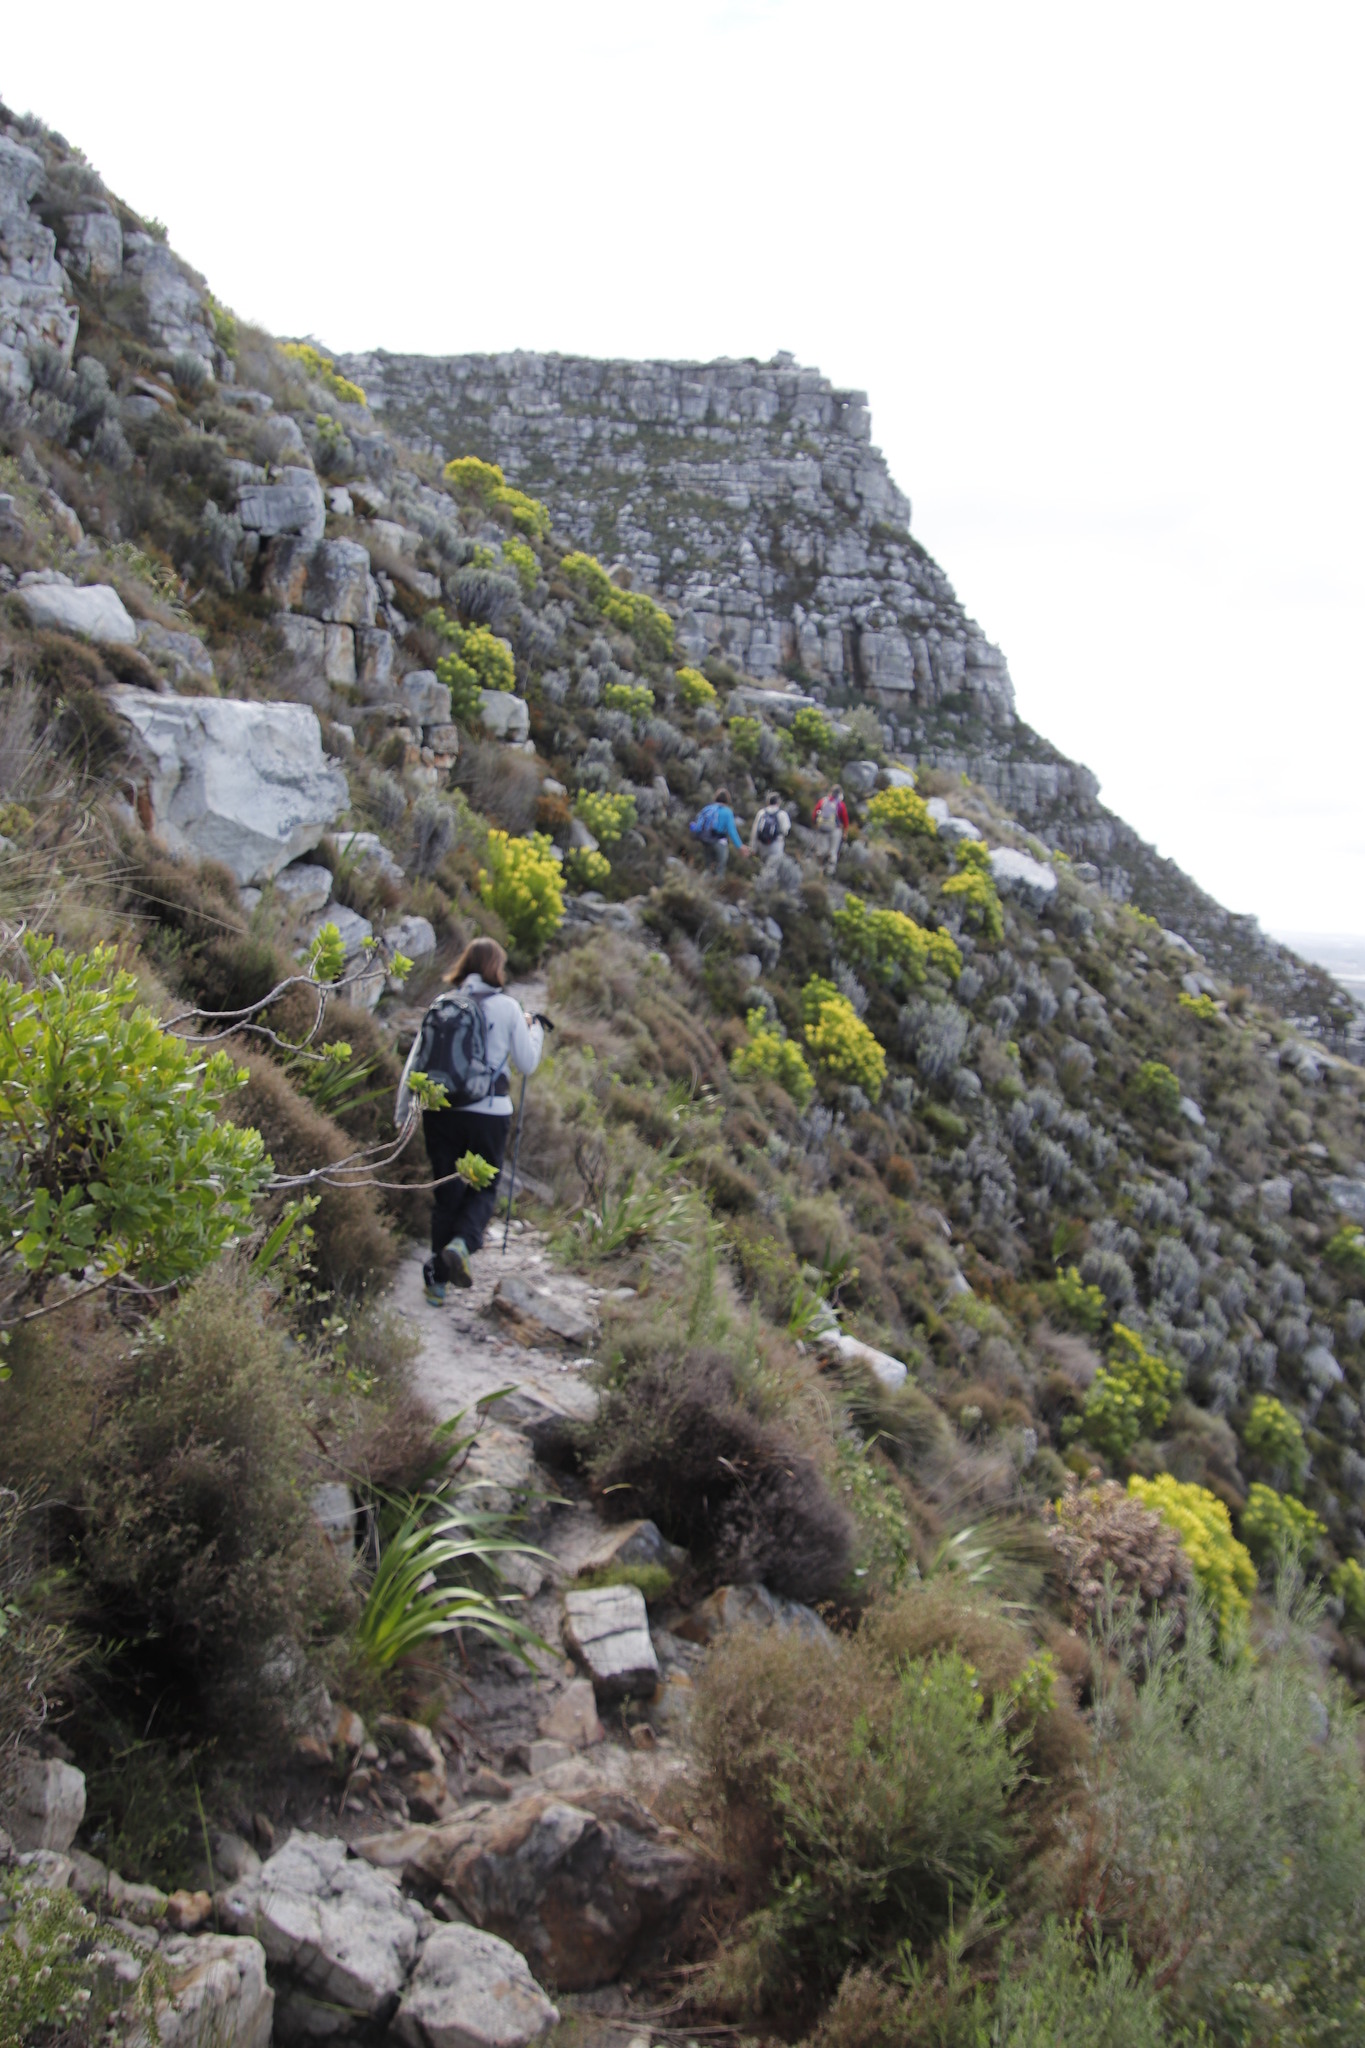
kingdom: Plantae
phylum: Tracheophyta
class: Magnoliopsida
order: Proteales
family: Proteaceae
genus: Leucadendron
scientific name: Leucadendron laureolum
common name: Golden sunshinebush
